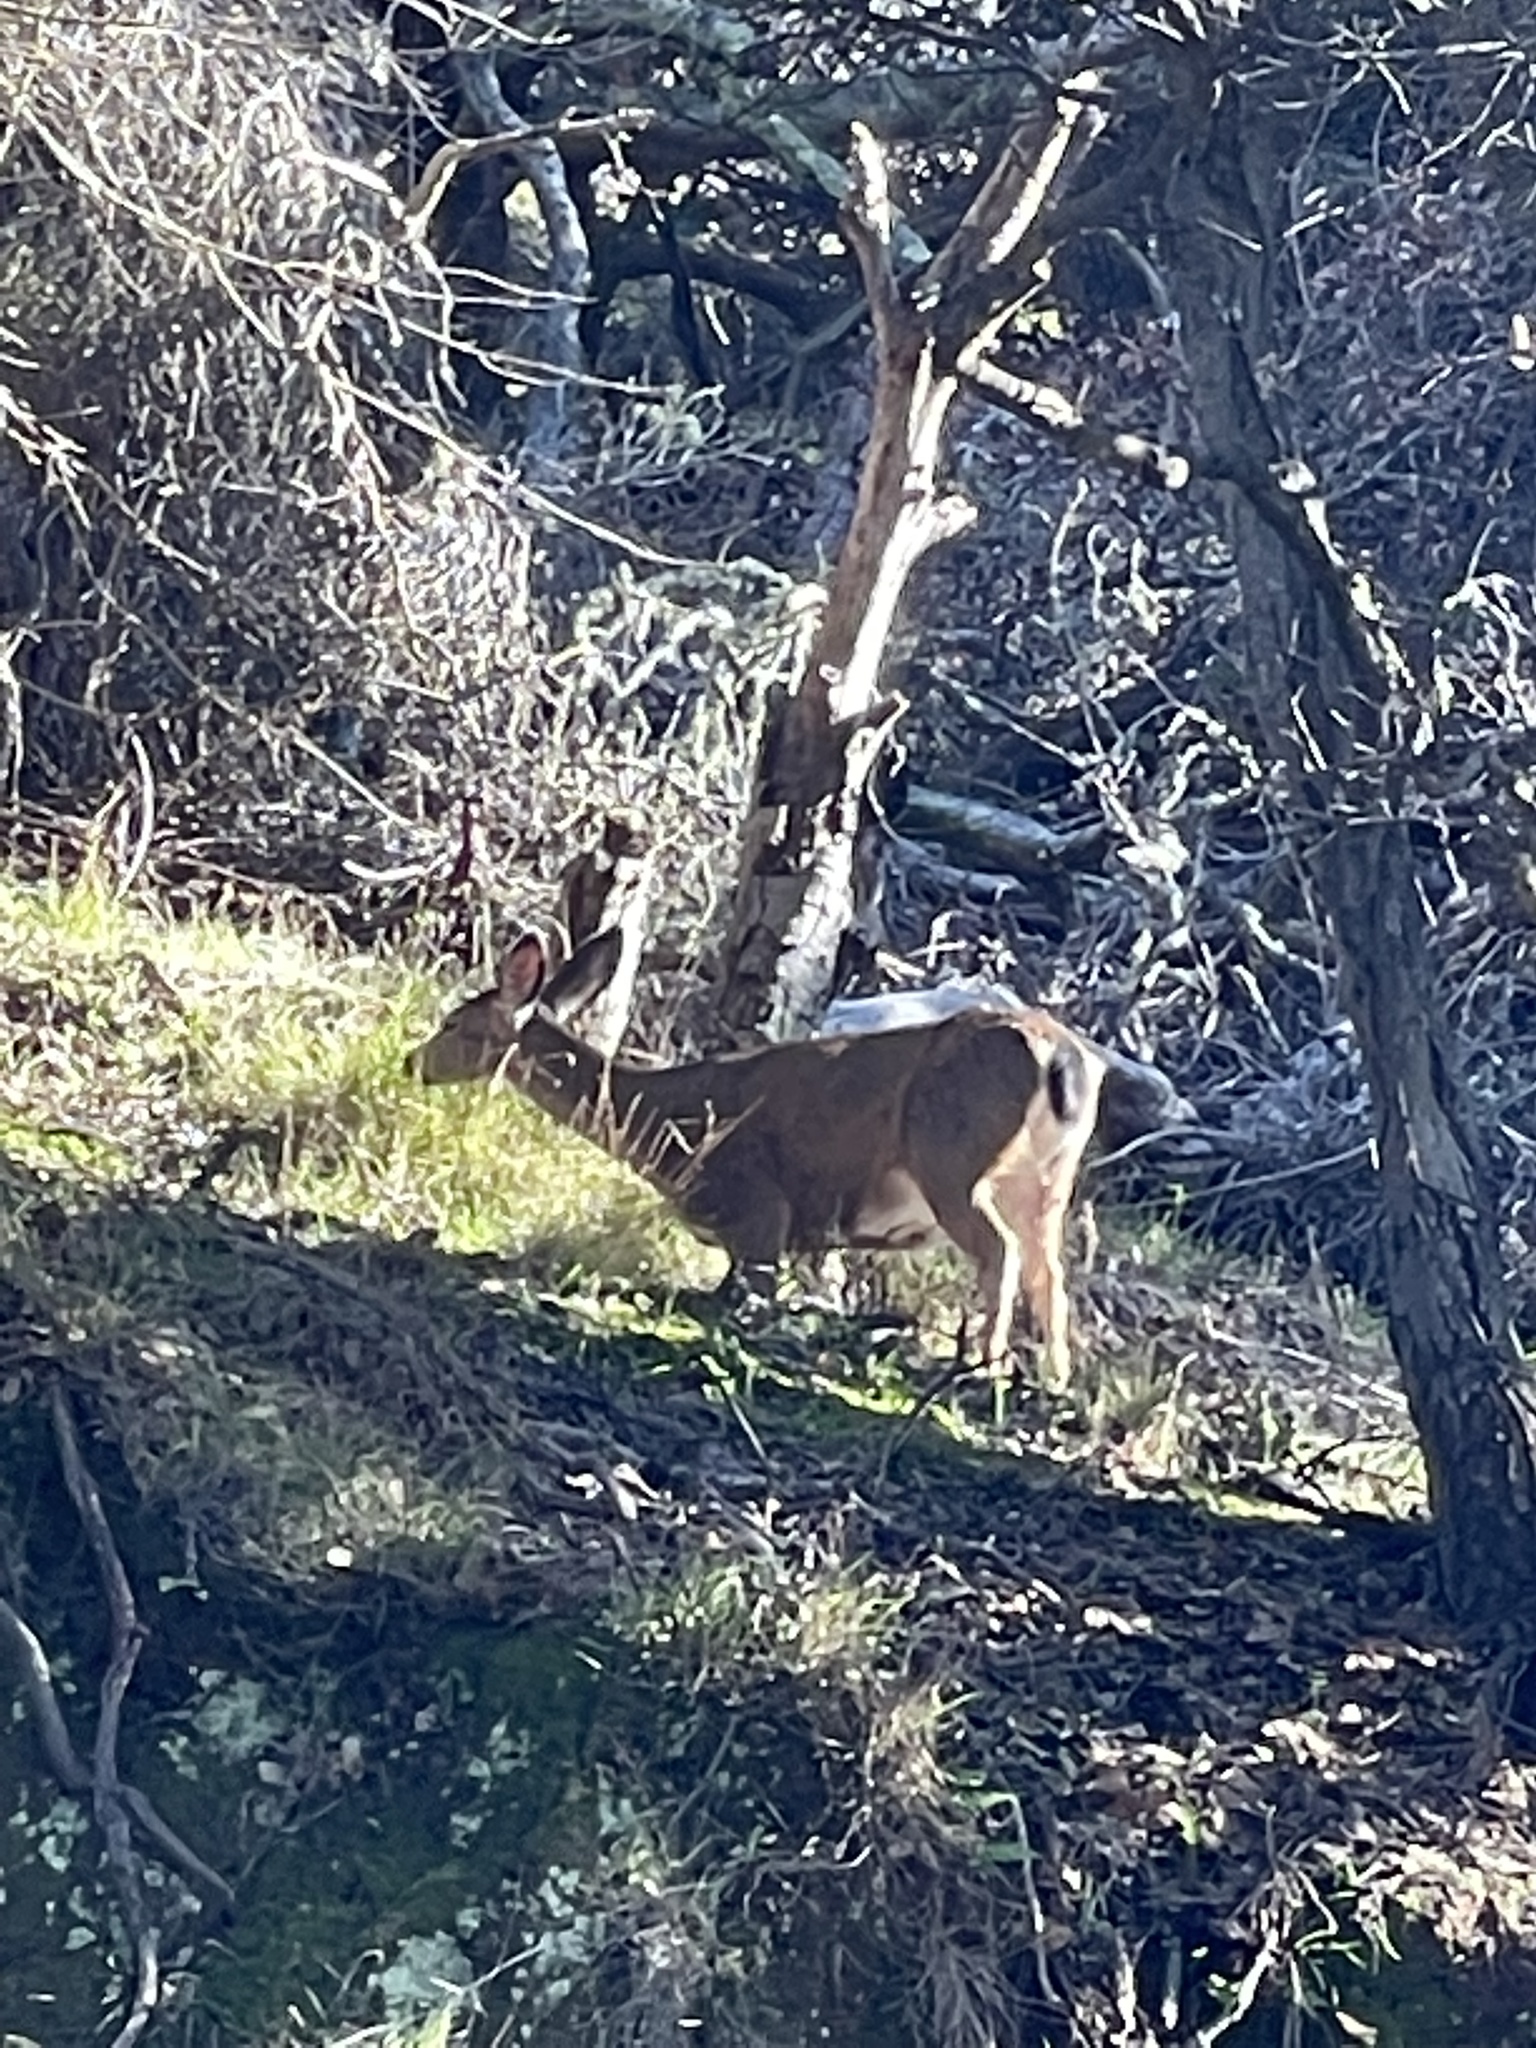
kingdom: Animalia
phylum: Chordata
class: Mammalia
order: Artiodactyla
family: Cervidae
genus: Odocoileus
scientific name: Odocoileus hemionus
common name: Mule deer
